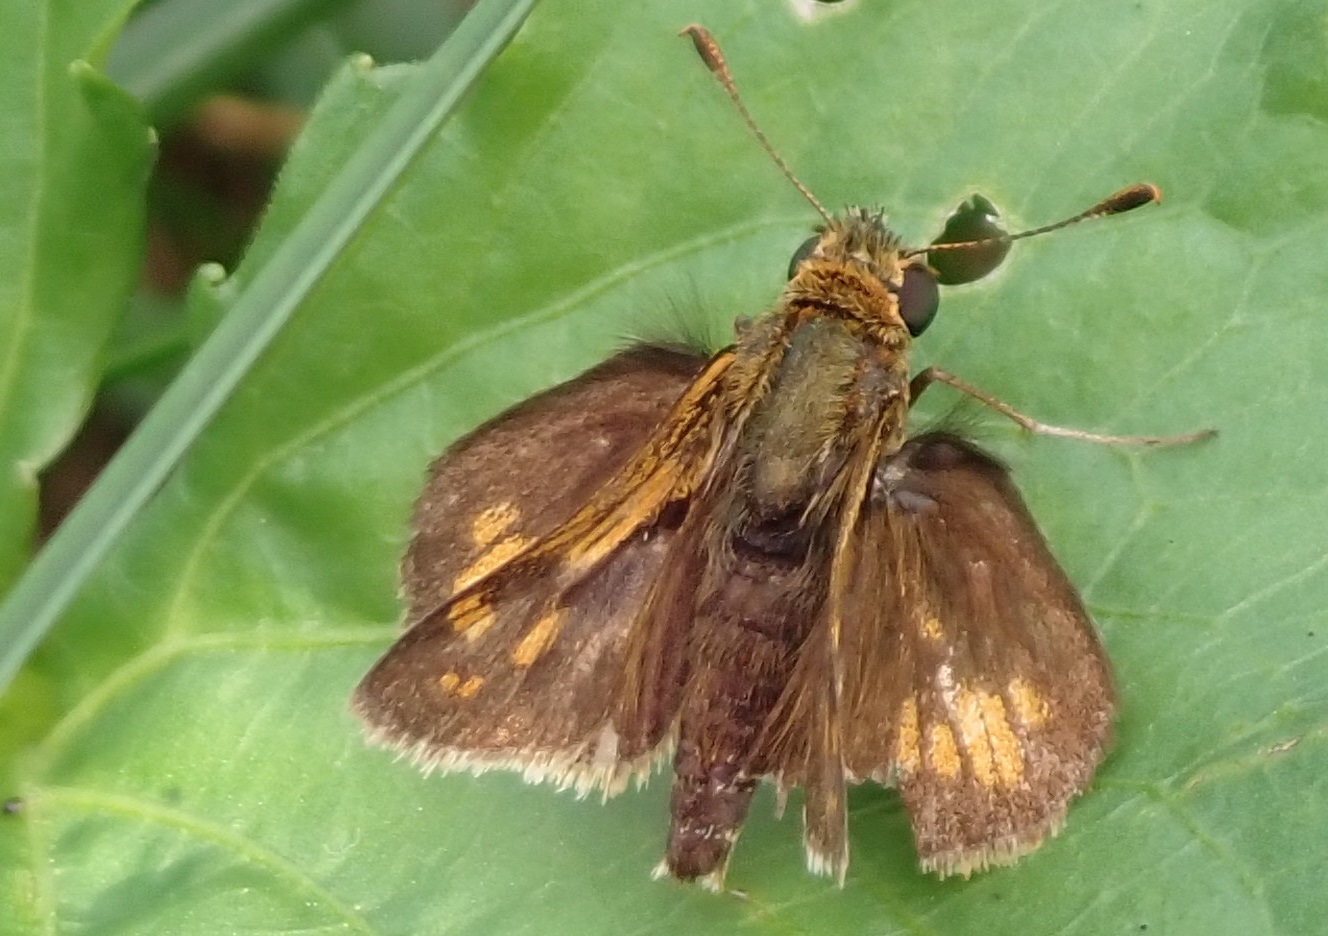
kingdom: Animalia
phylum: Arthropoda
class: Insecta
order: Lepidoptera
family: Hesperiidae
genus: Polites
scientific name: Polites coras
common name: Peck's skipper
